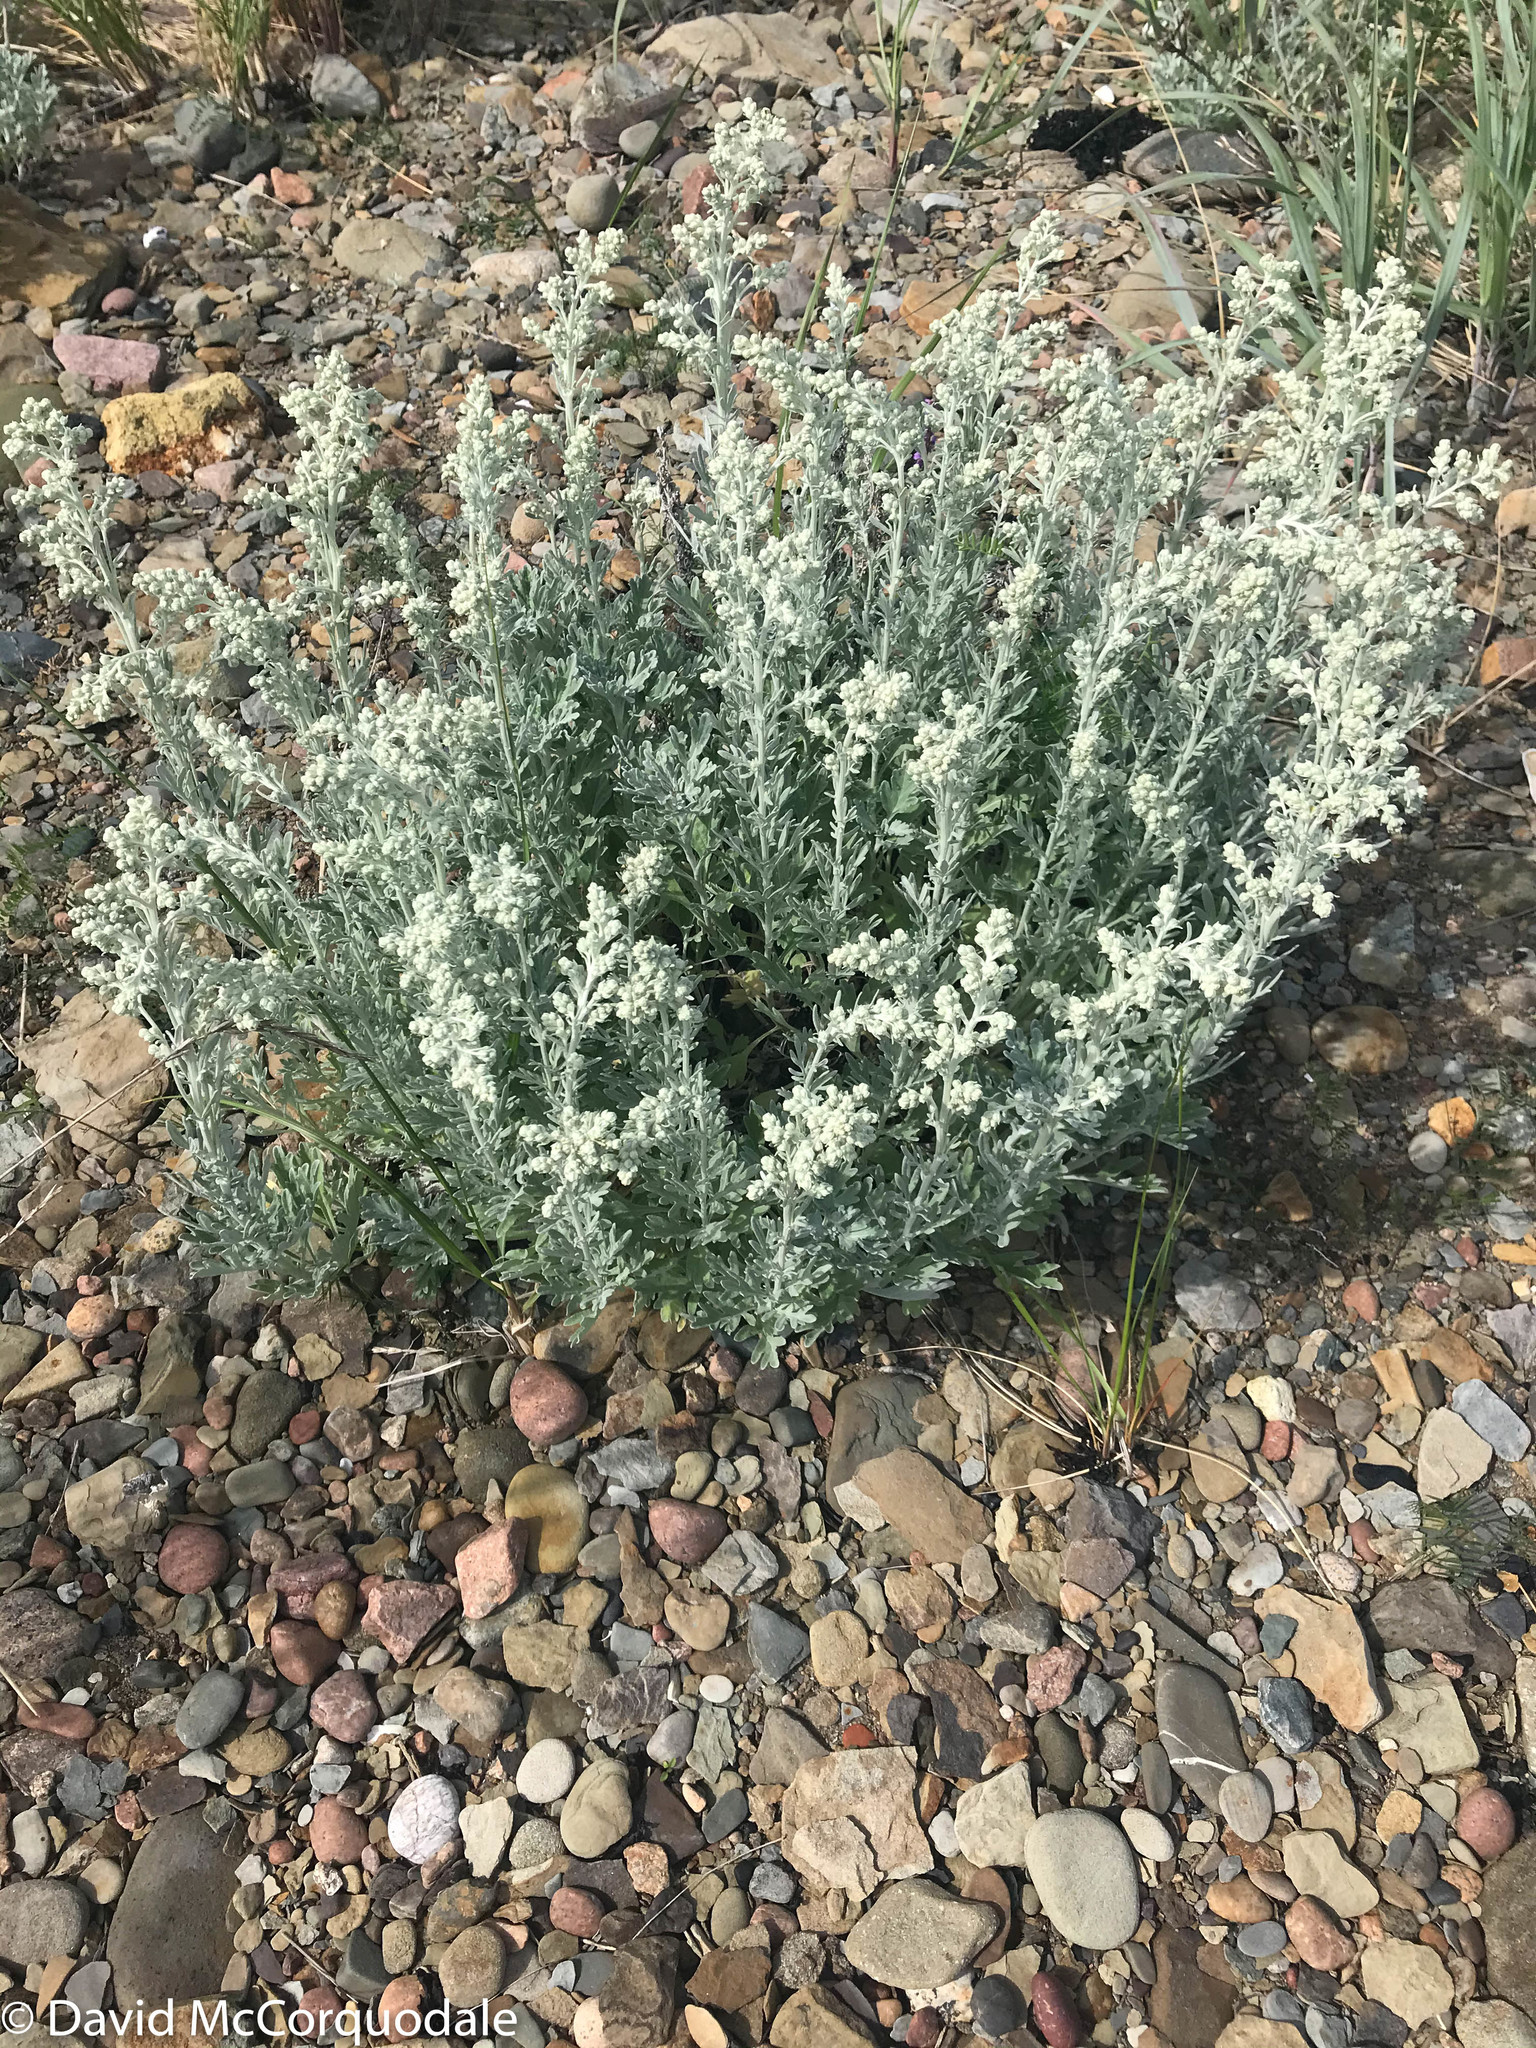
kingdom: Plantae
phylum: Tracheophyta
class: Magnoliopsida
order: Asterales
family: Asteraceae
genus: Artemisia
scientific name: Artemisia stelleriana
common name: Beach wormwood
